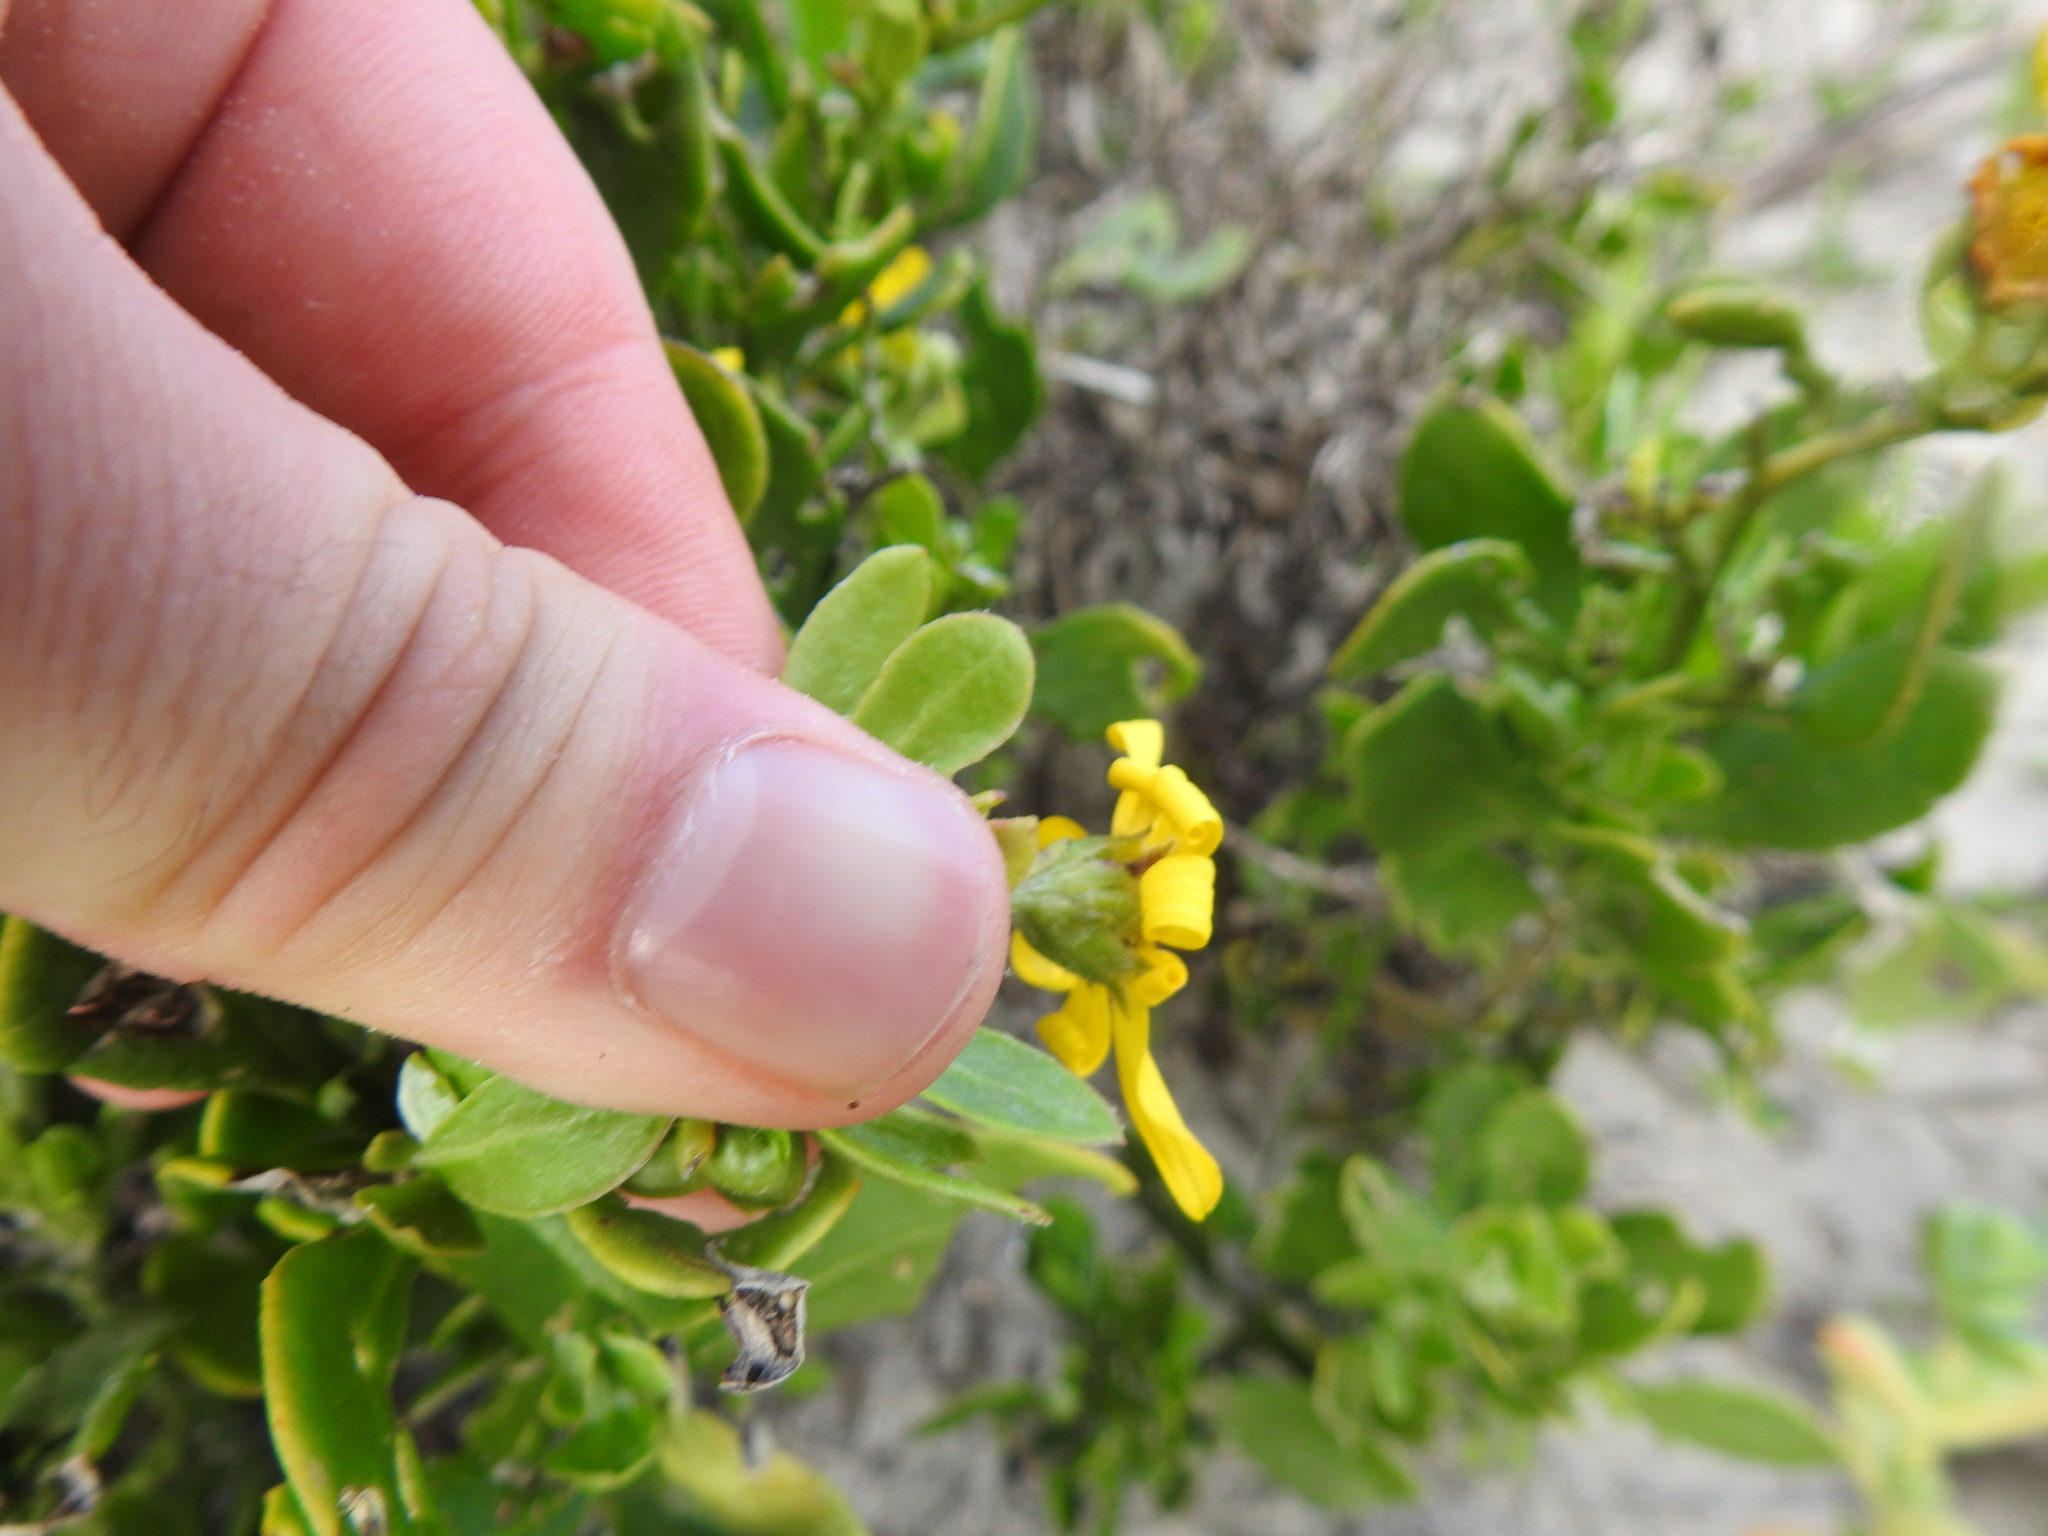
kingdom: Plantae
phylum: Tracheophyta
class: Magnoliopsida
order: Asterales
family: Asteraceae
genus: Osteospermum
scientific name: Osteospermum moniliferum
